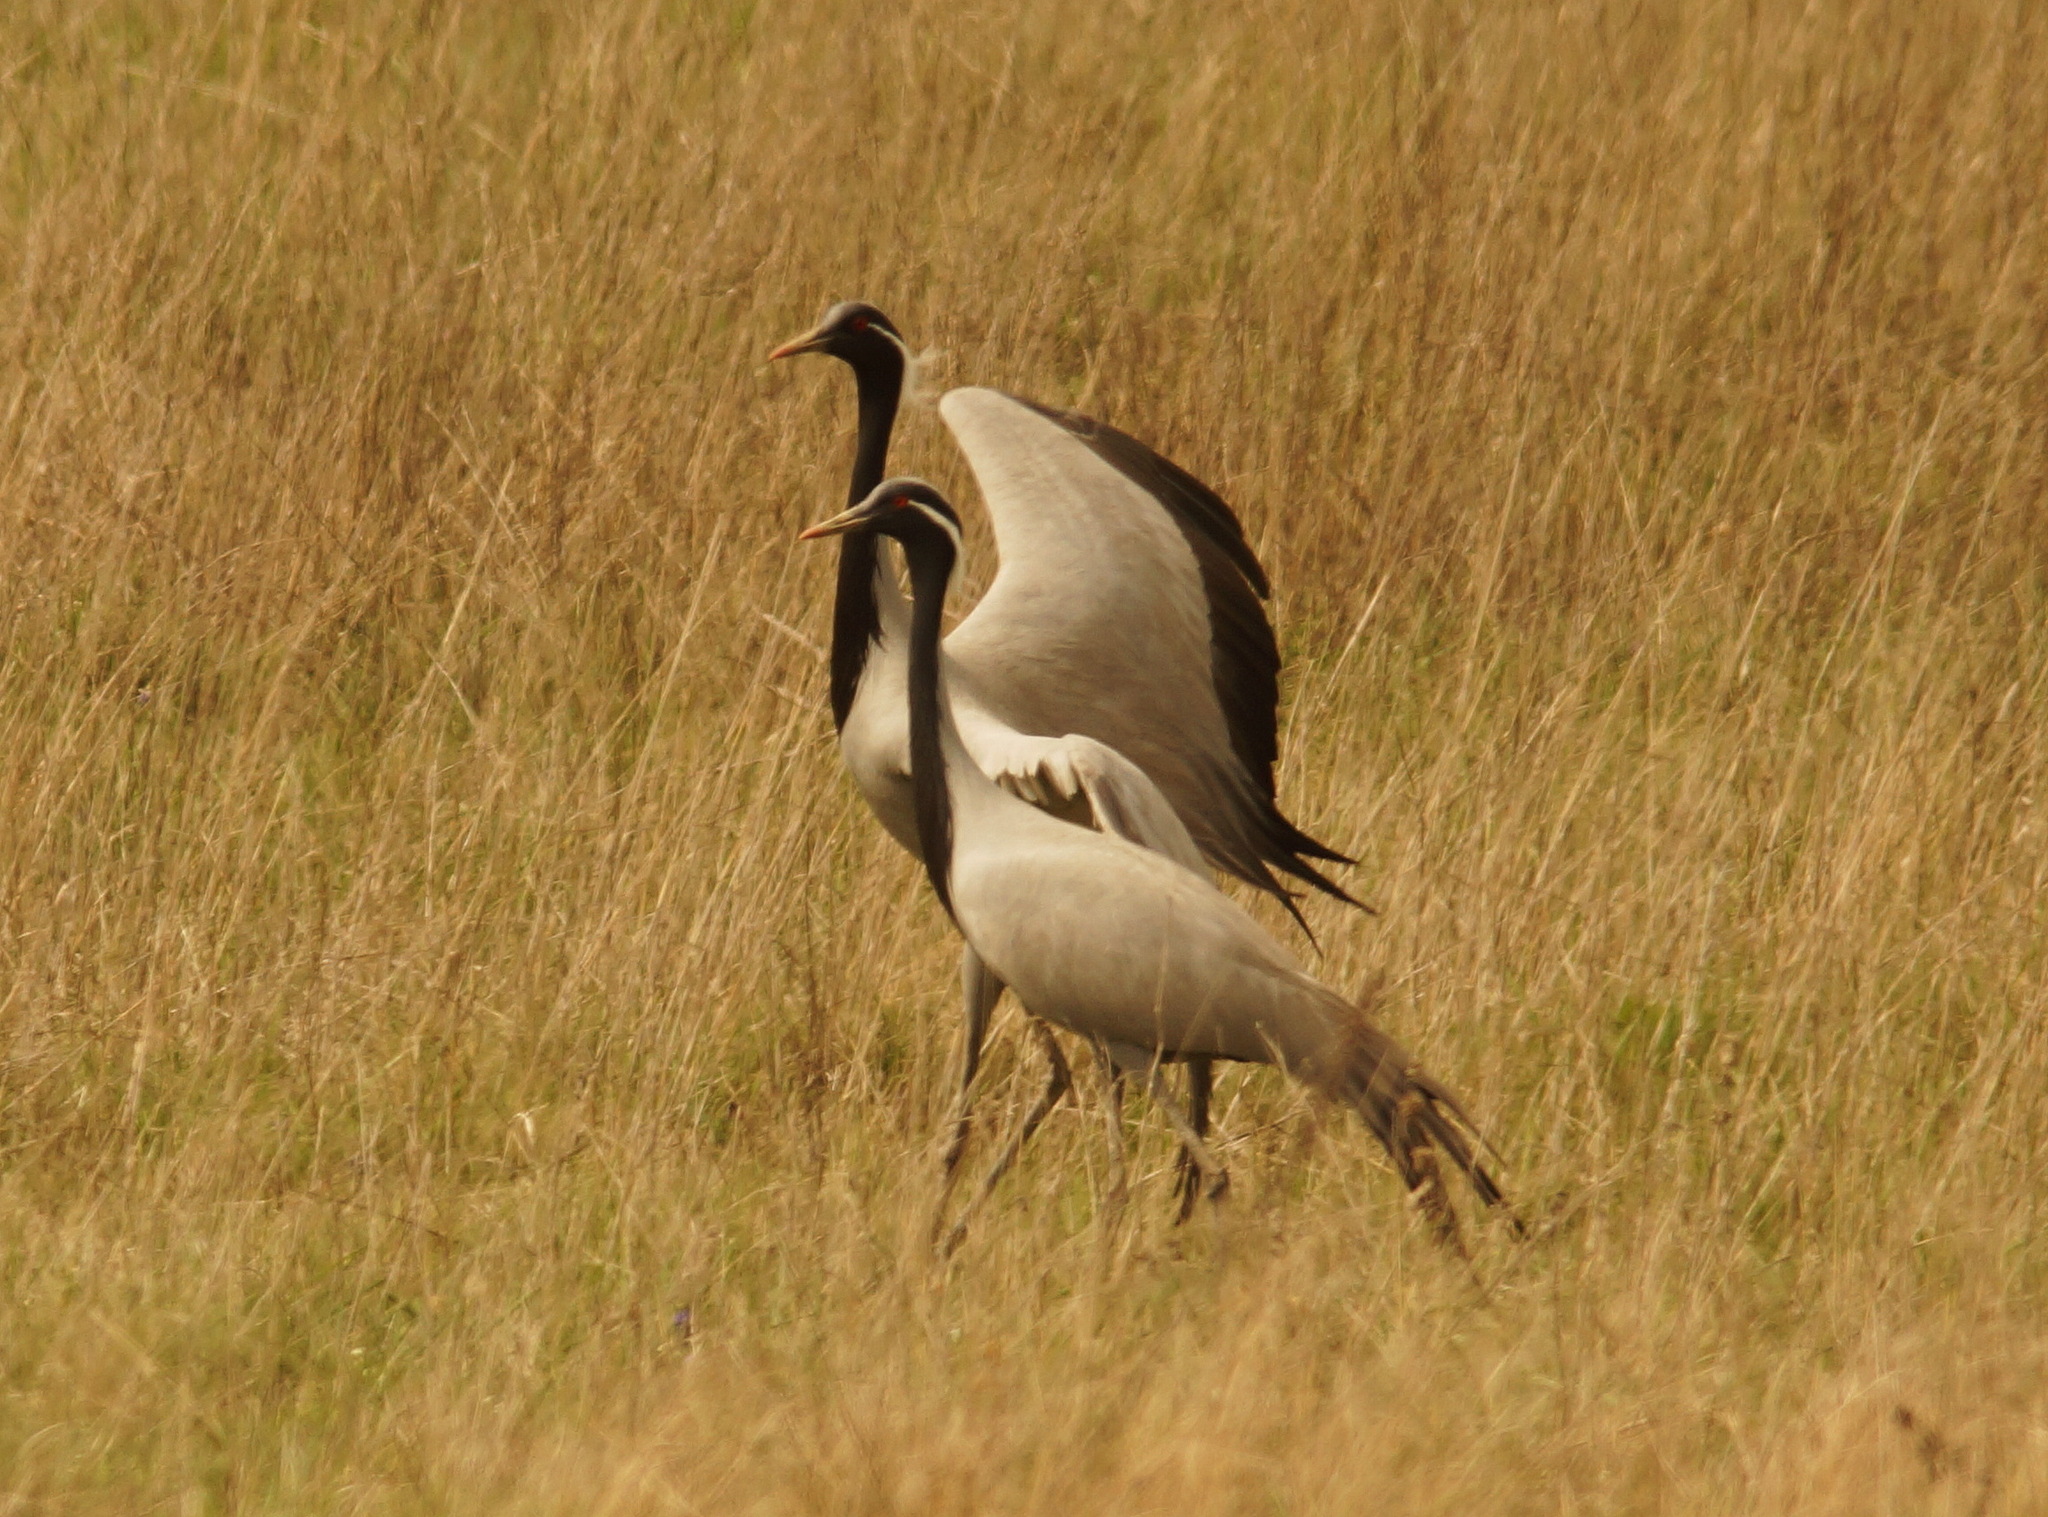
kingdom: Animalia
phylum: Chordata
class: Aves
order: Gruiformes
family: Gruidae
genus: Anthropoides
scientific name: Anthropoides virgo
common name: Demoiselle crane
